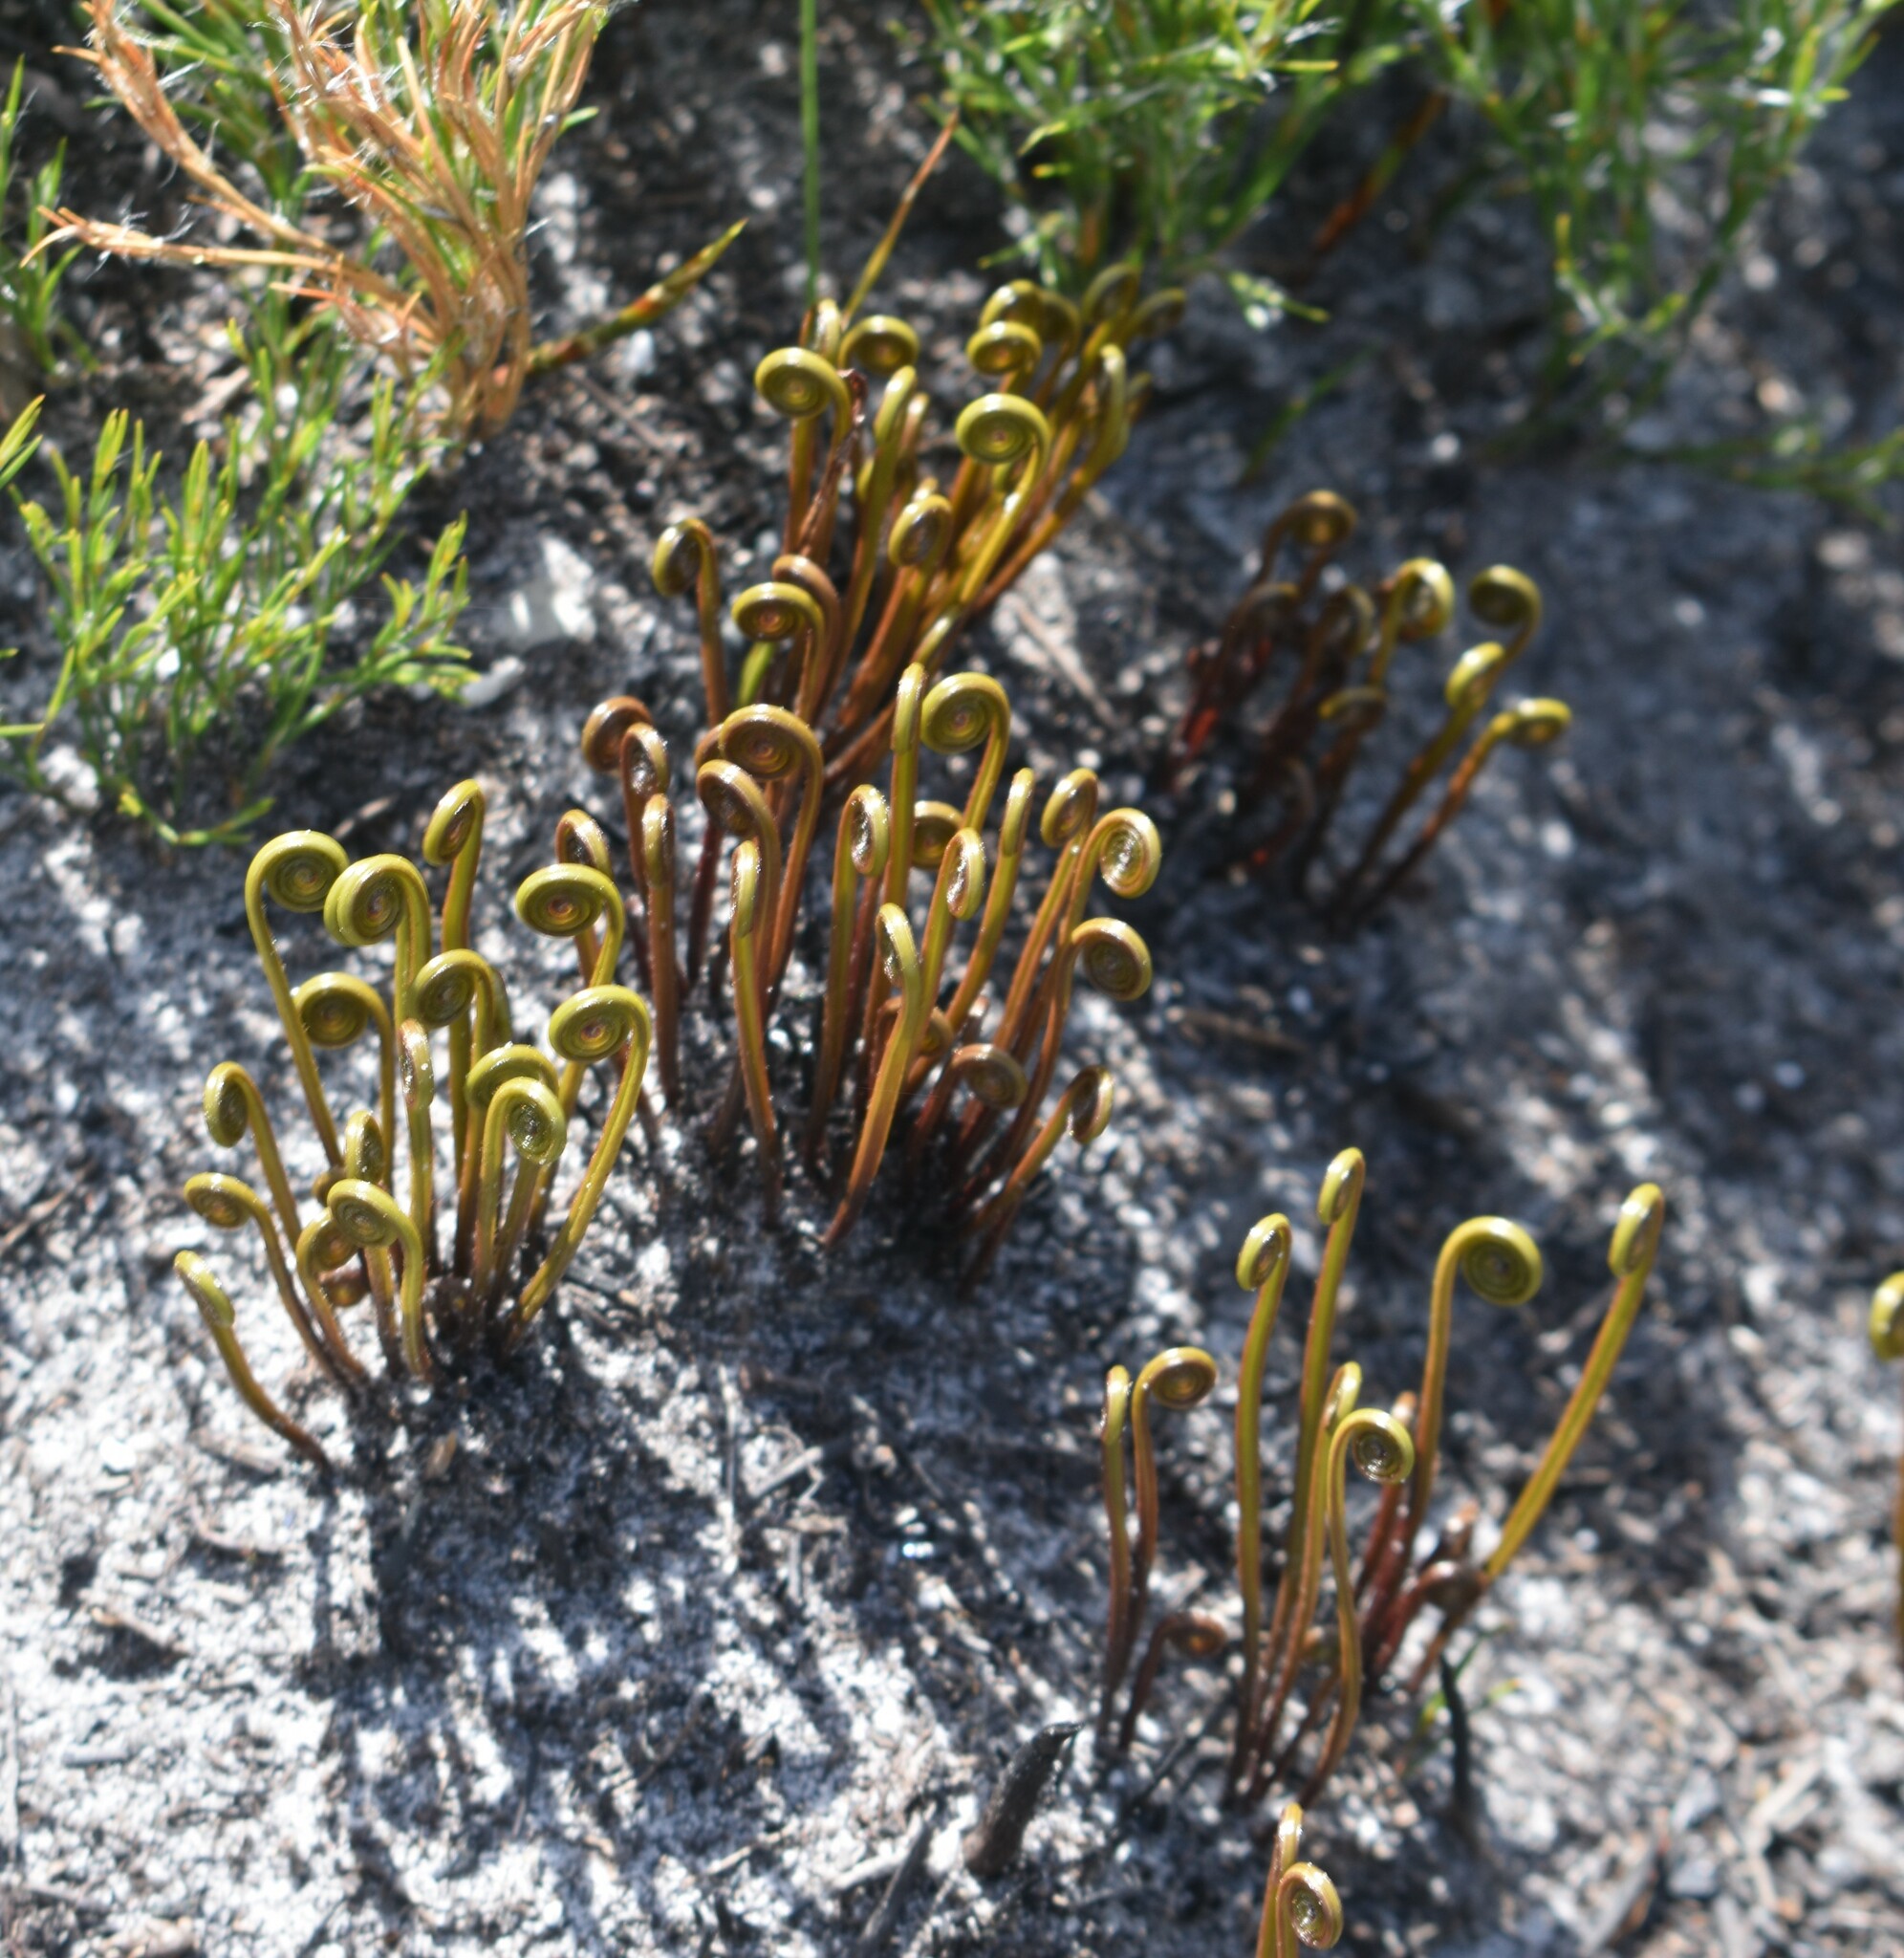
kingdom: Plantae
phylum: Tracheophyta
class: Polypodiopsida
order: Schizaeales
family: Schizaeaceae
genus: Schizaea
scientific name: Schizaea pectinata
